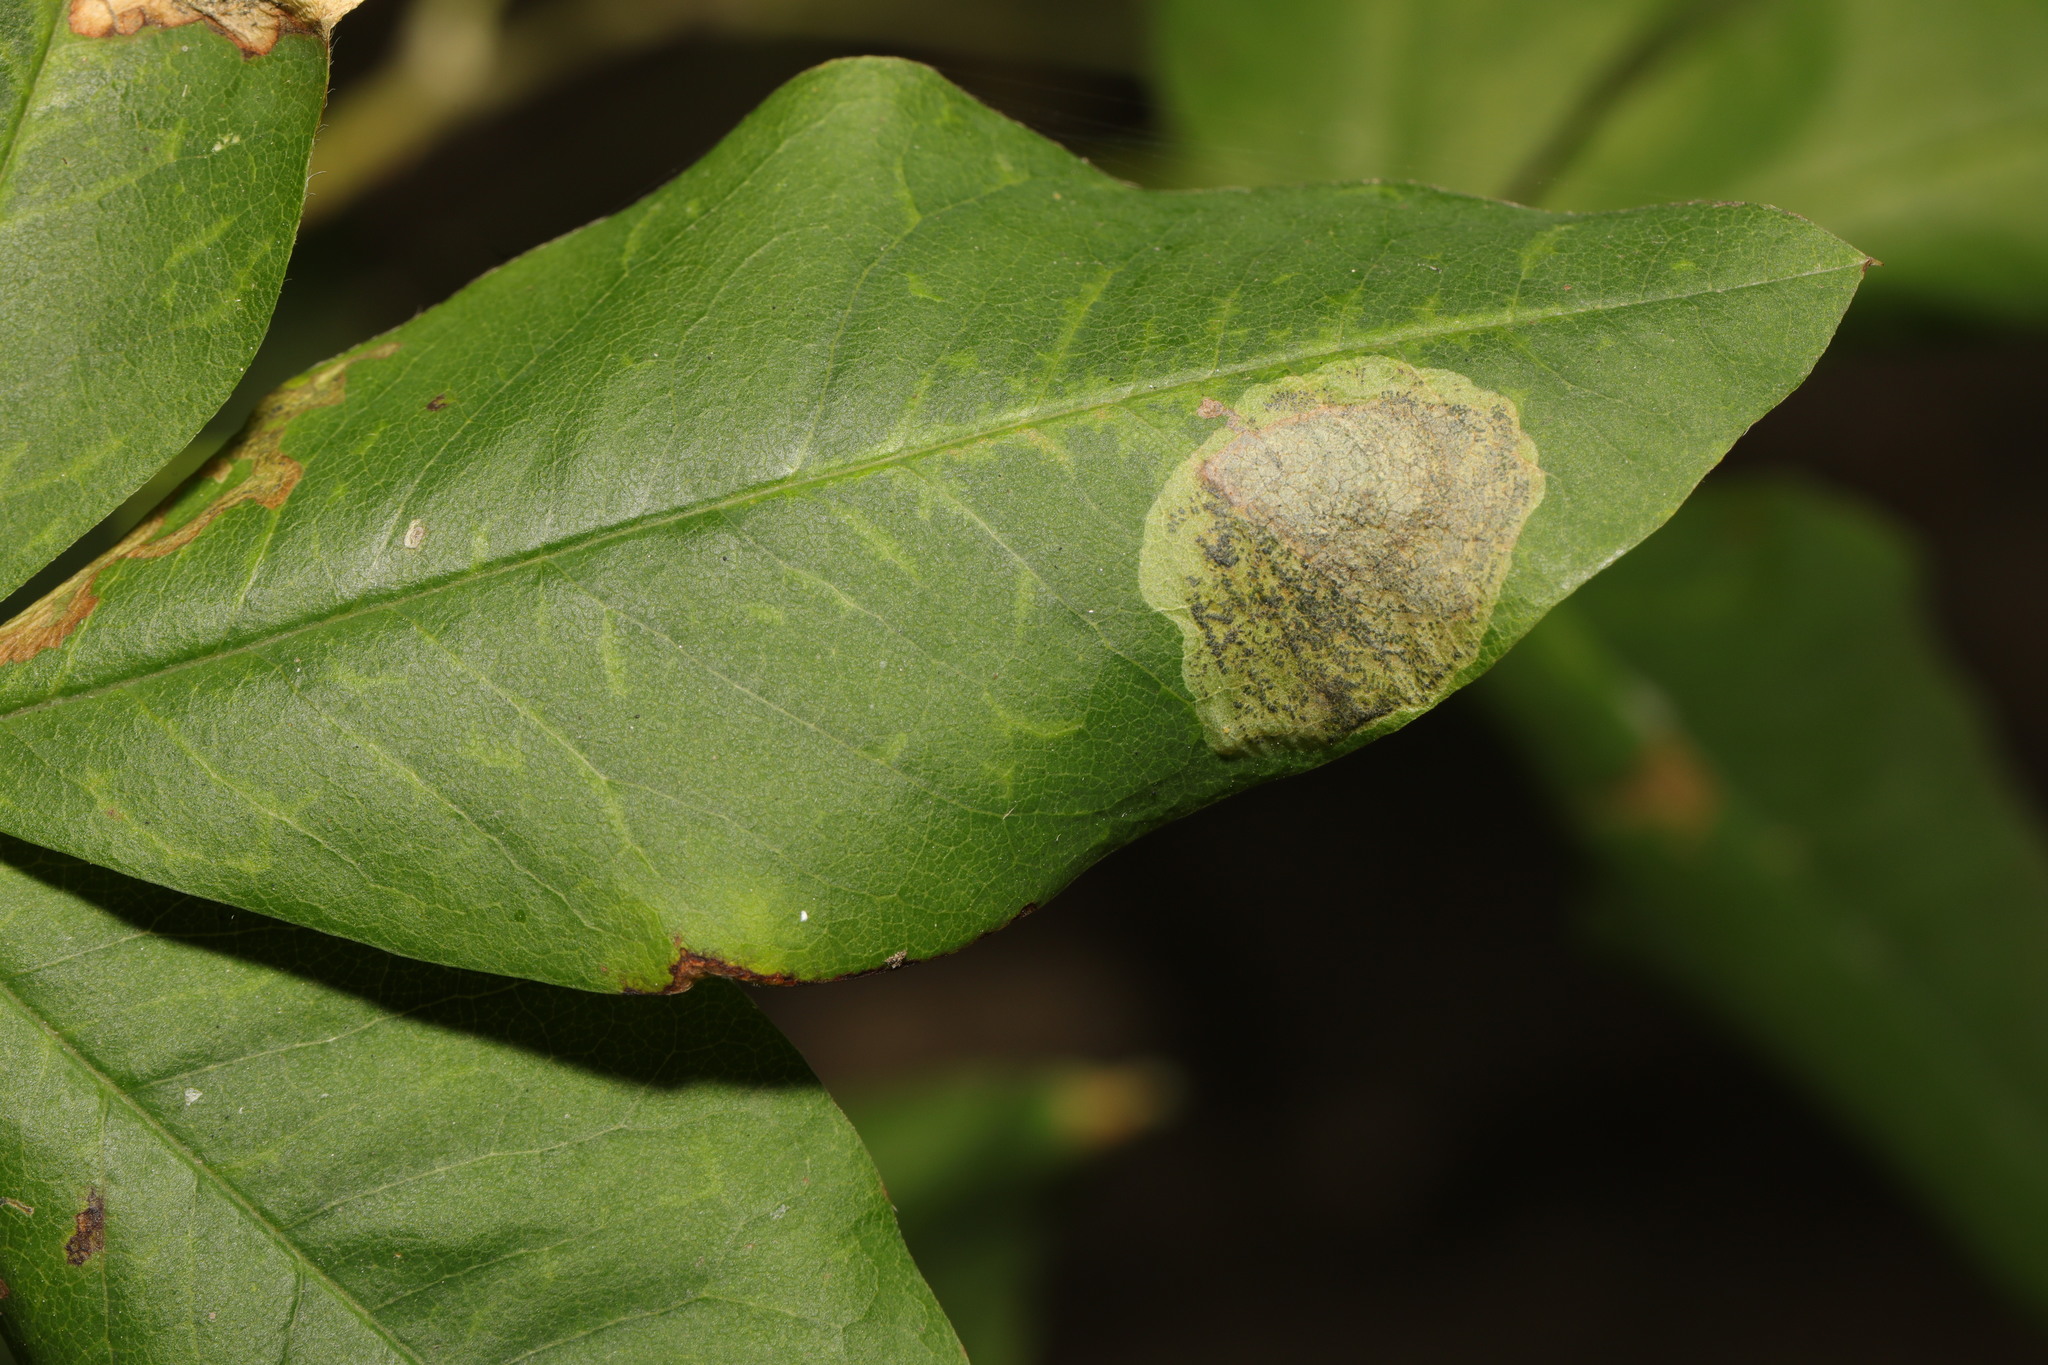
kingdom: Animalia
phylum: Arthropoda
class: Insecta
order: Lepidoptera
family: Lyonetiidae
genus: Leucoptera
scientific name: Leucoptera laburnella
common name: Laburnum leaf miner
